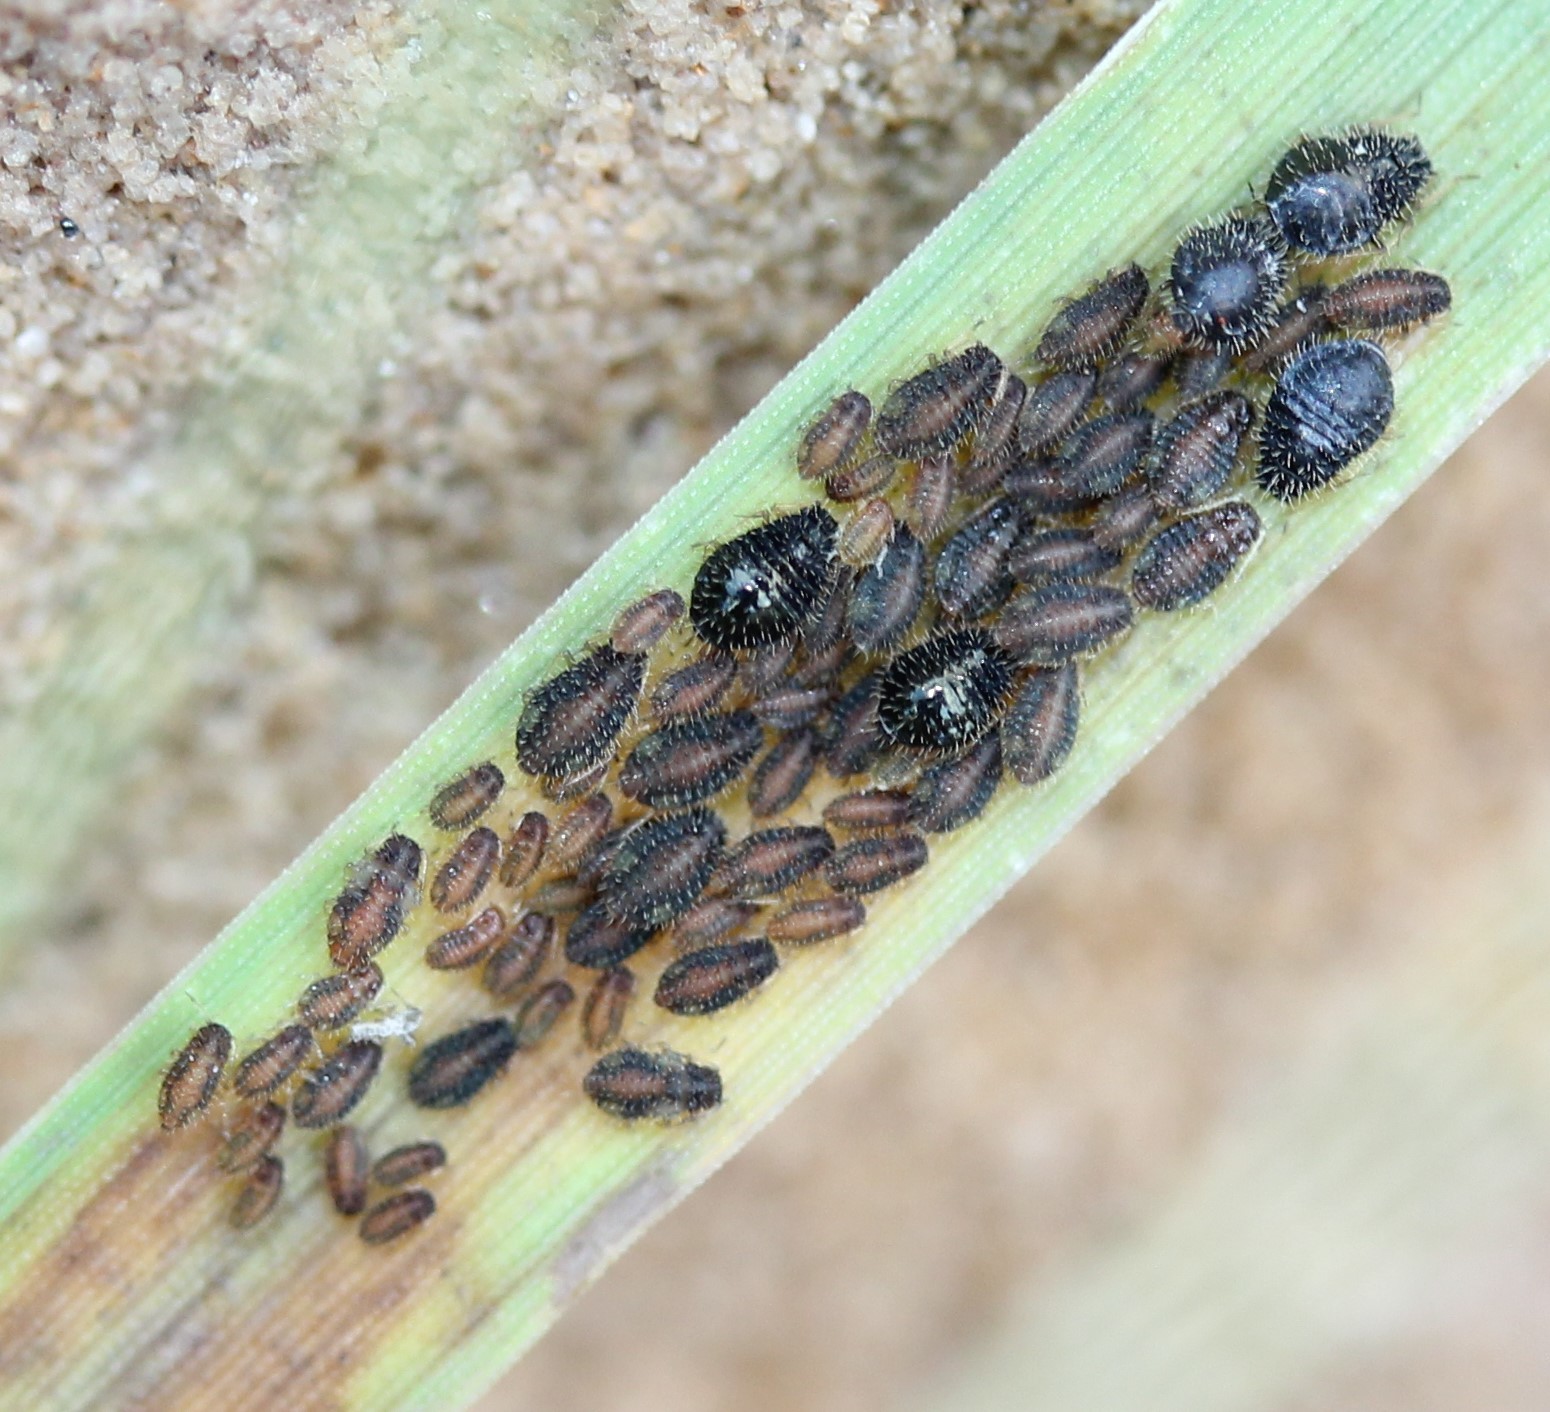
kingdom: Animalia
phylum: Arthropoda
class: Insecta
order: Hemiptera
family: Aphididae
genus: Sipha
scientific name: Sipha maydis
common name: Aphid
